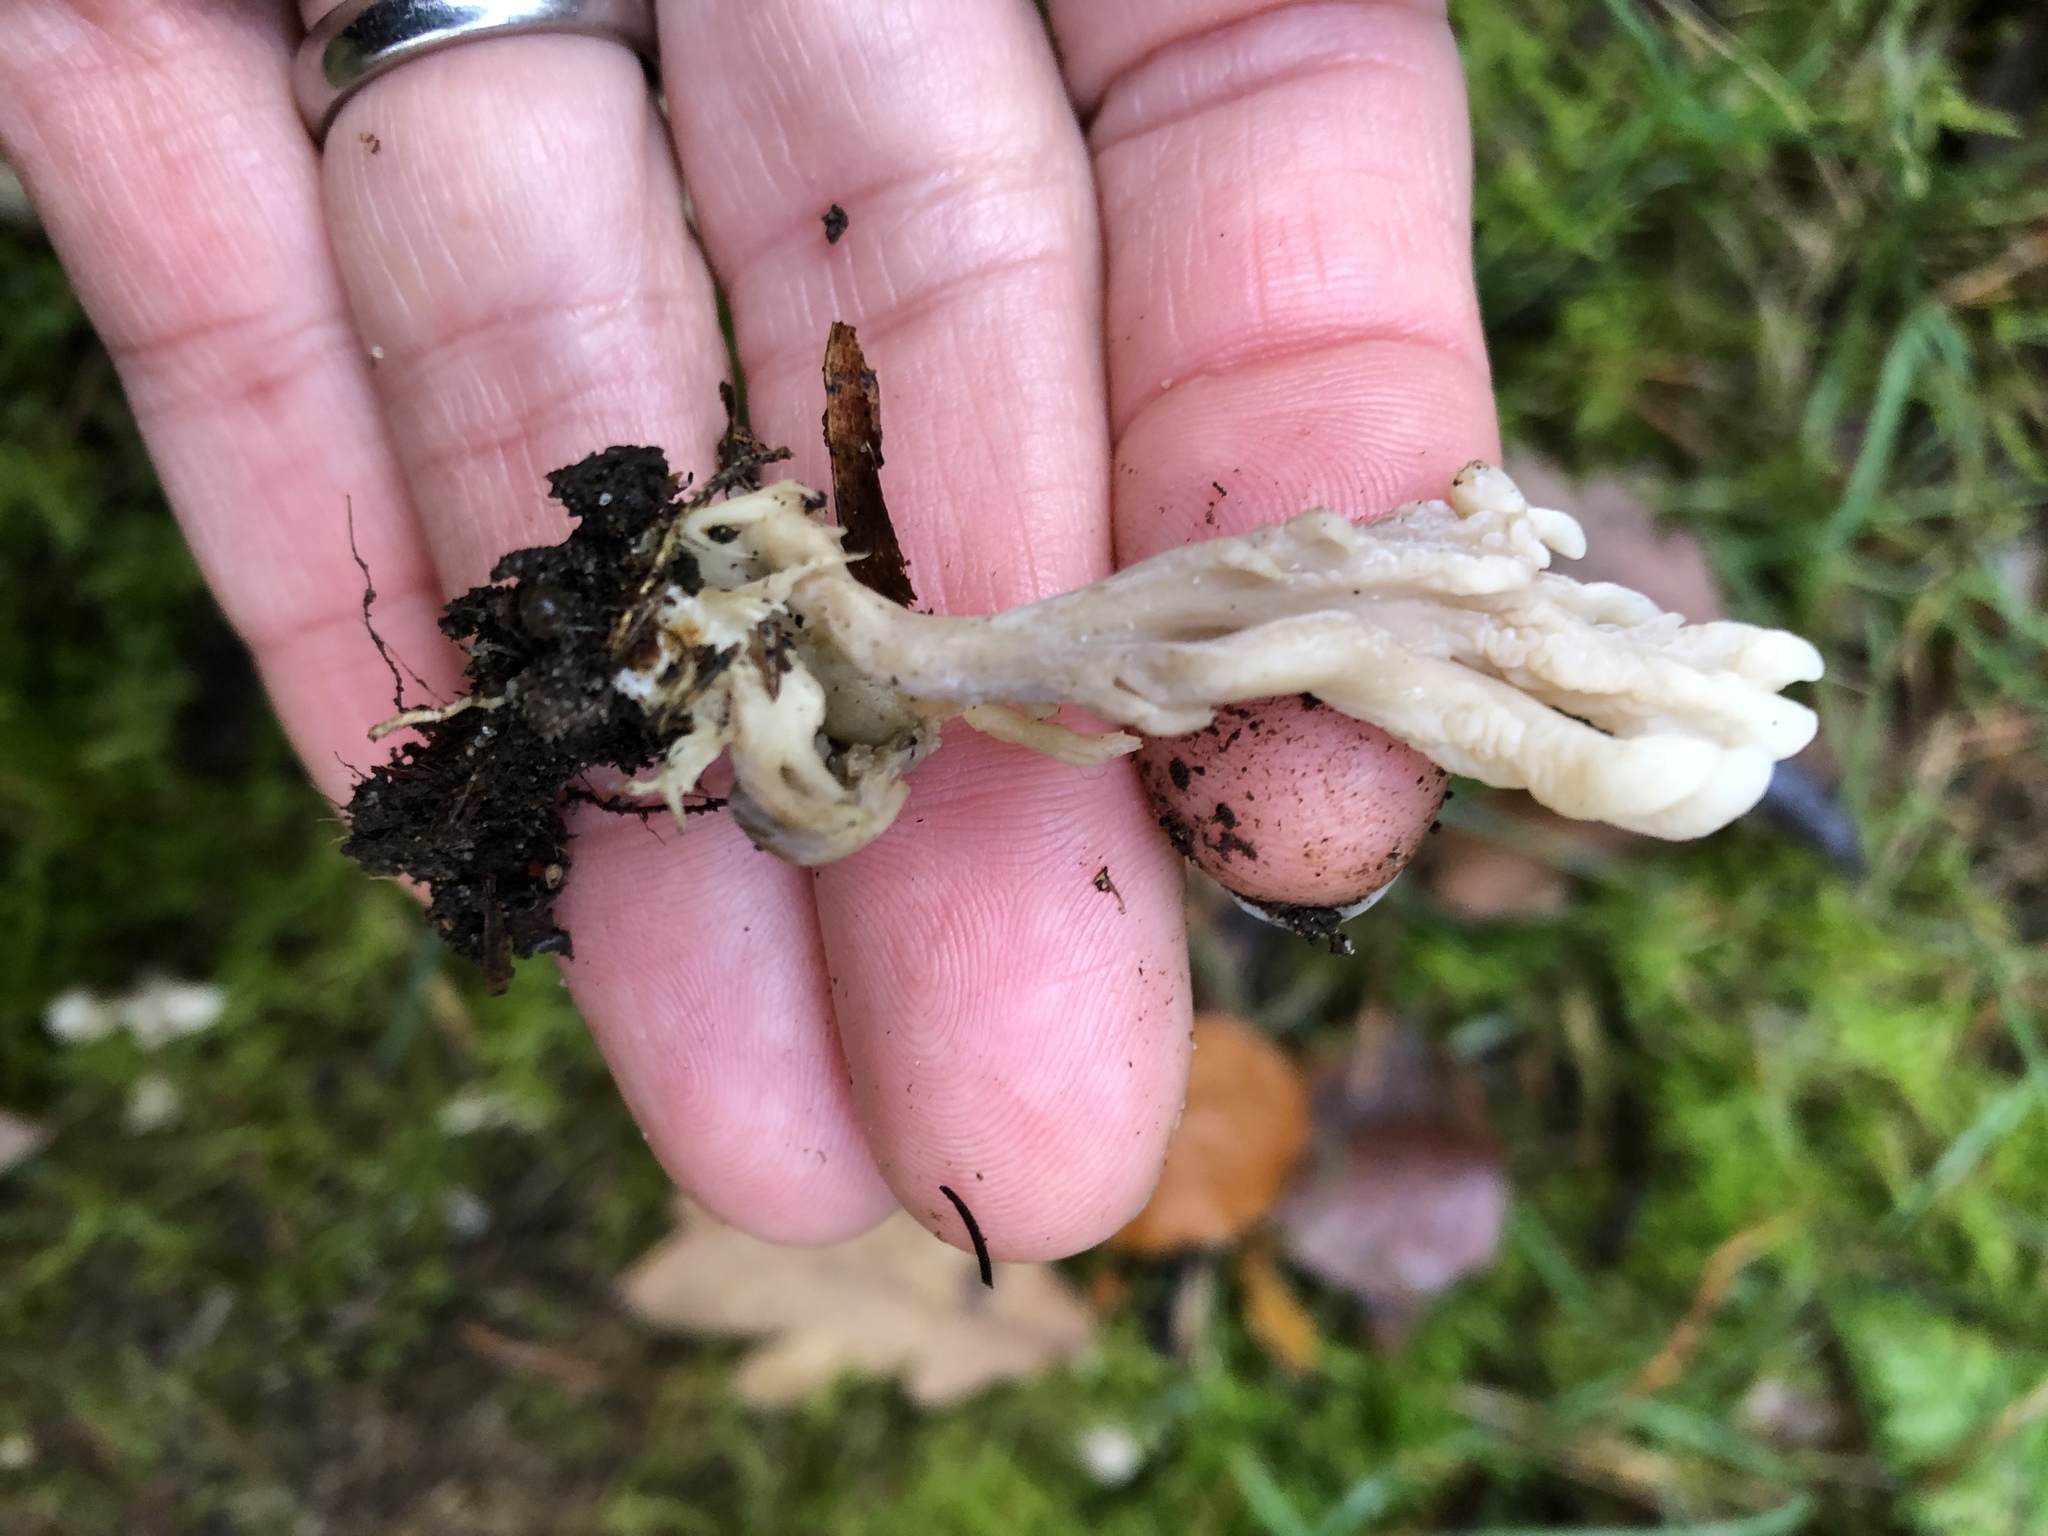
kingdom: Fungi
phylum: Basidiomycota
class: Agaricomycetes
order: Cantharellales
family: Hydnaceae
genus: Clavulina
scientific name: Clavulina cinerea
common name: Grey coral
